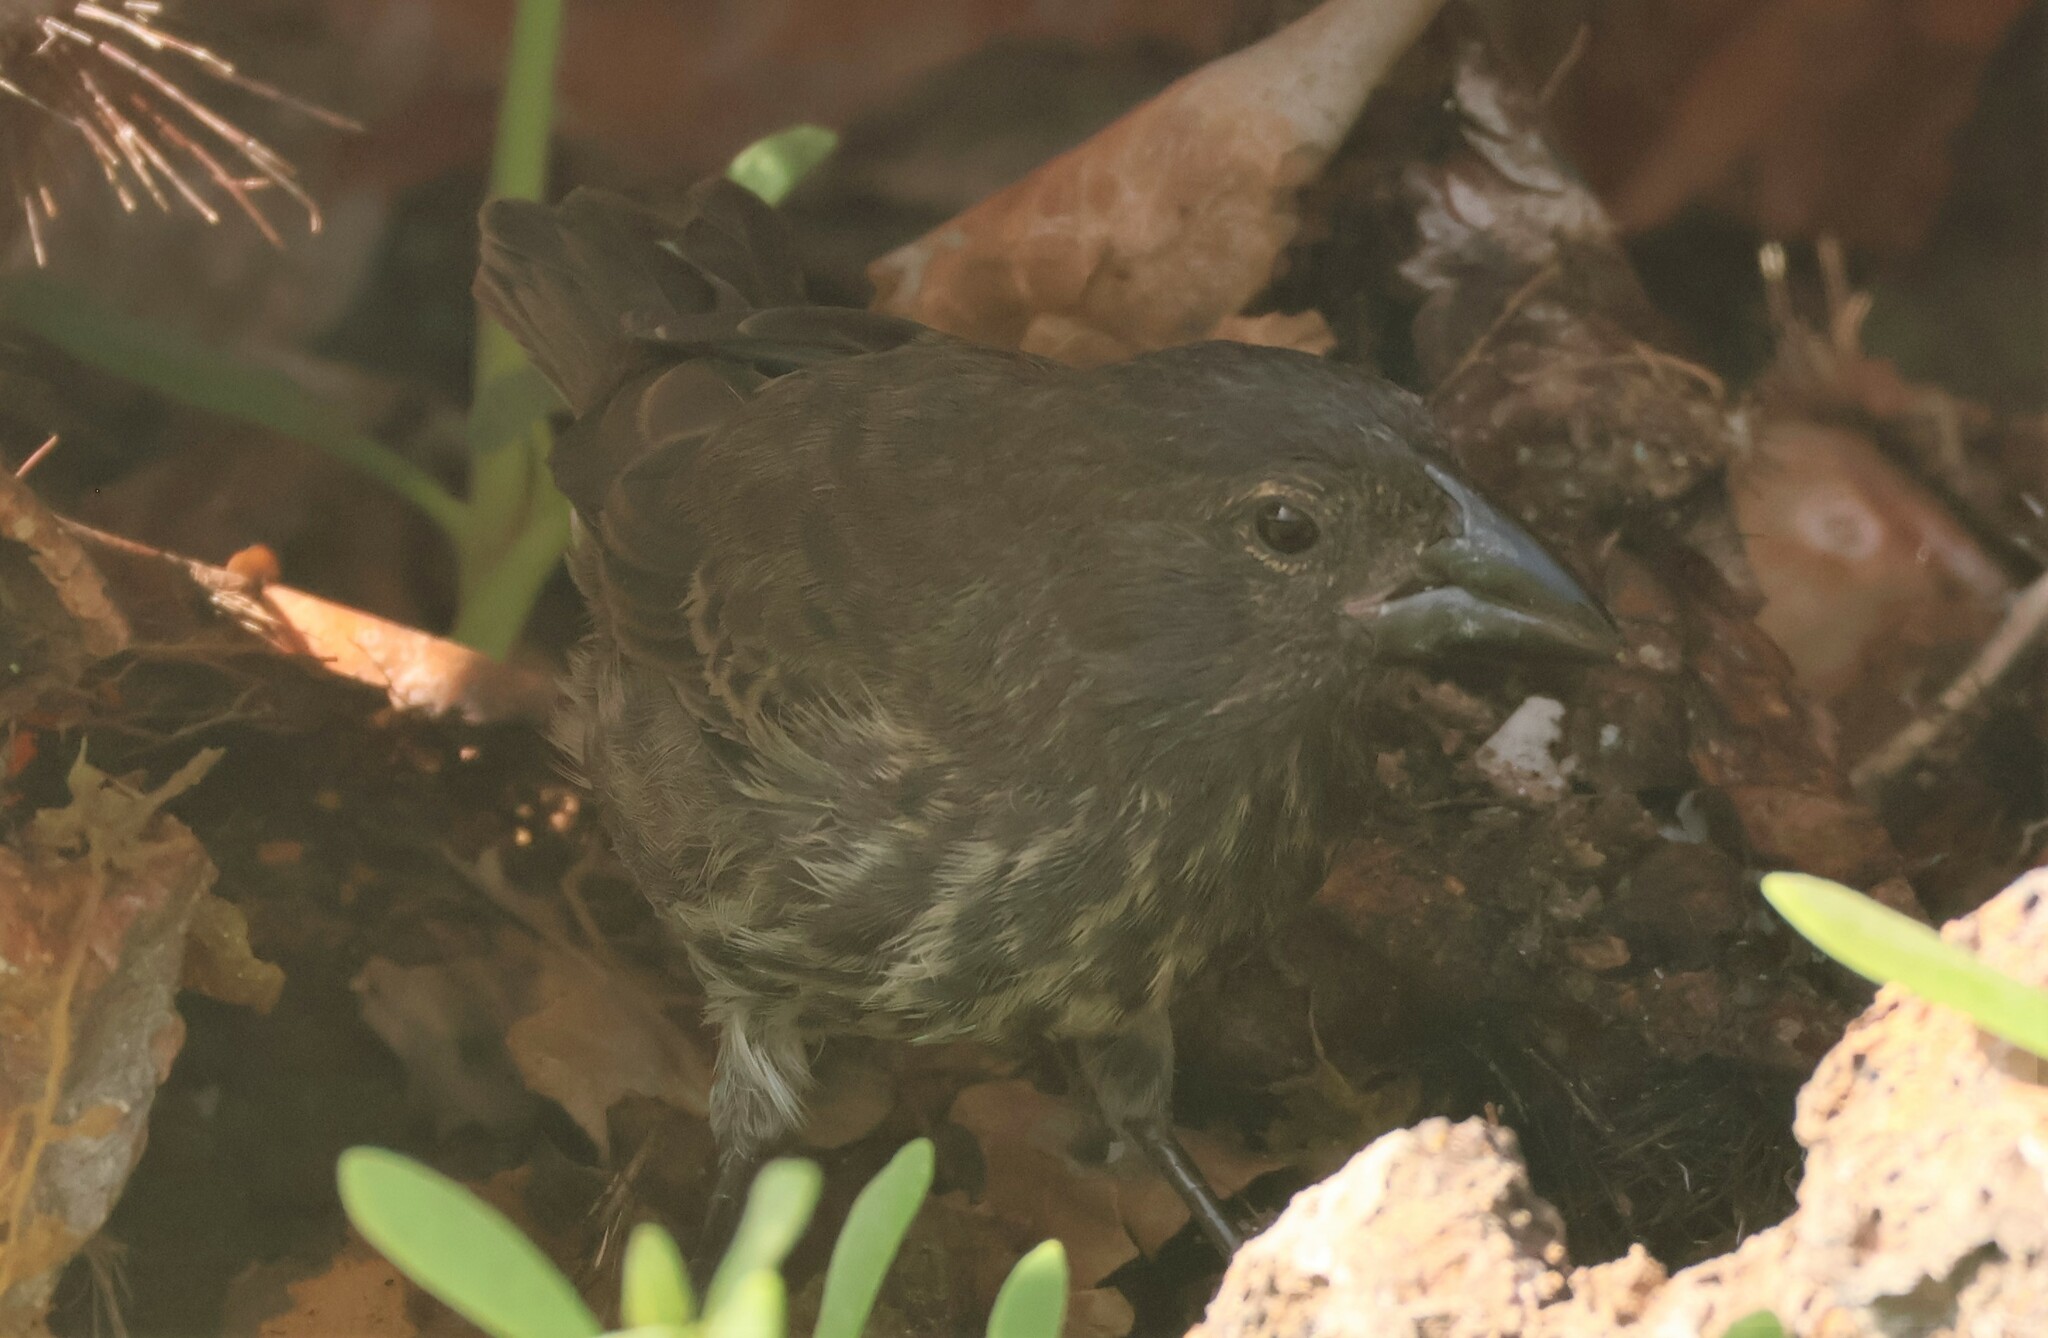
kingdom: Animalia
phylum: Chordata
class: Aves
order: Passeriformes
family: Thraupidae
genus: Geospiza
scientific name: Geospiza propinqua
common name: Genovesa cactus-finch
